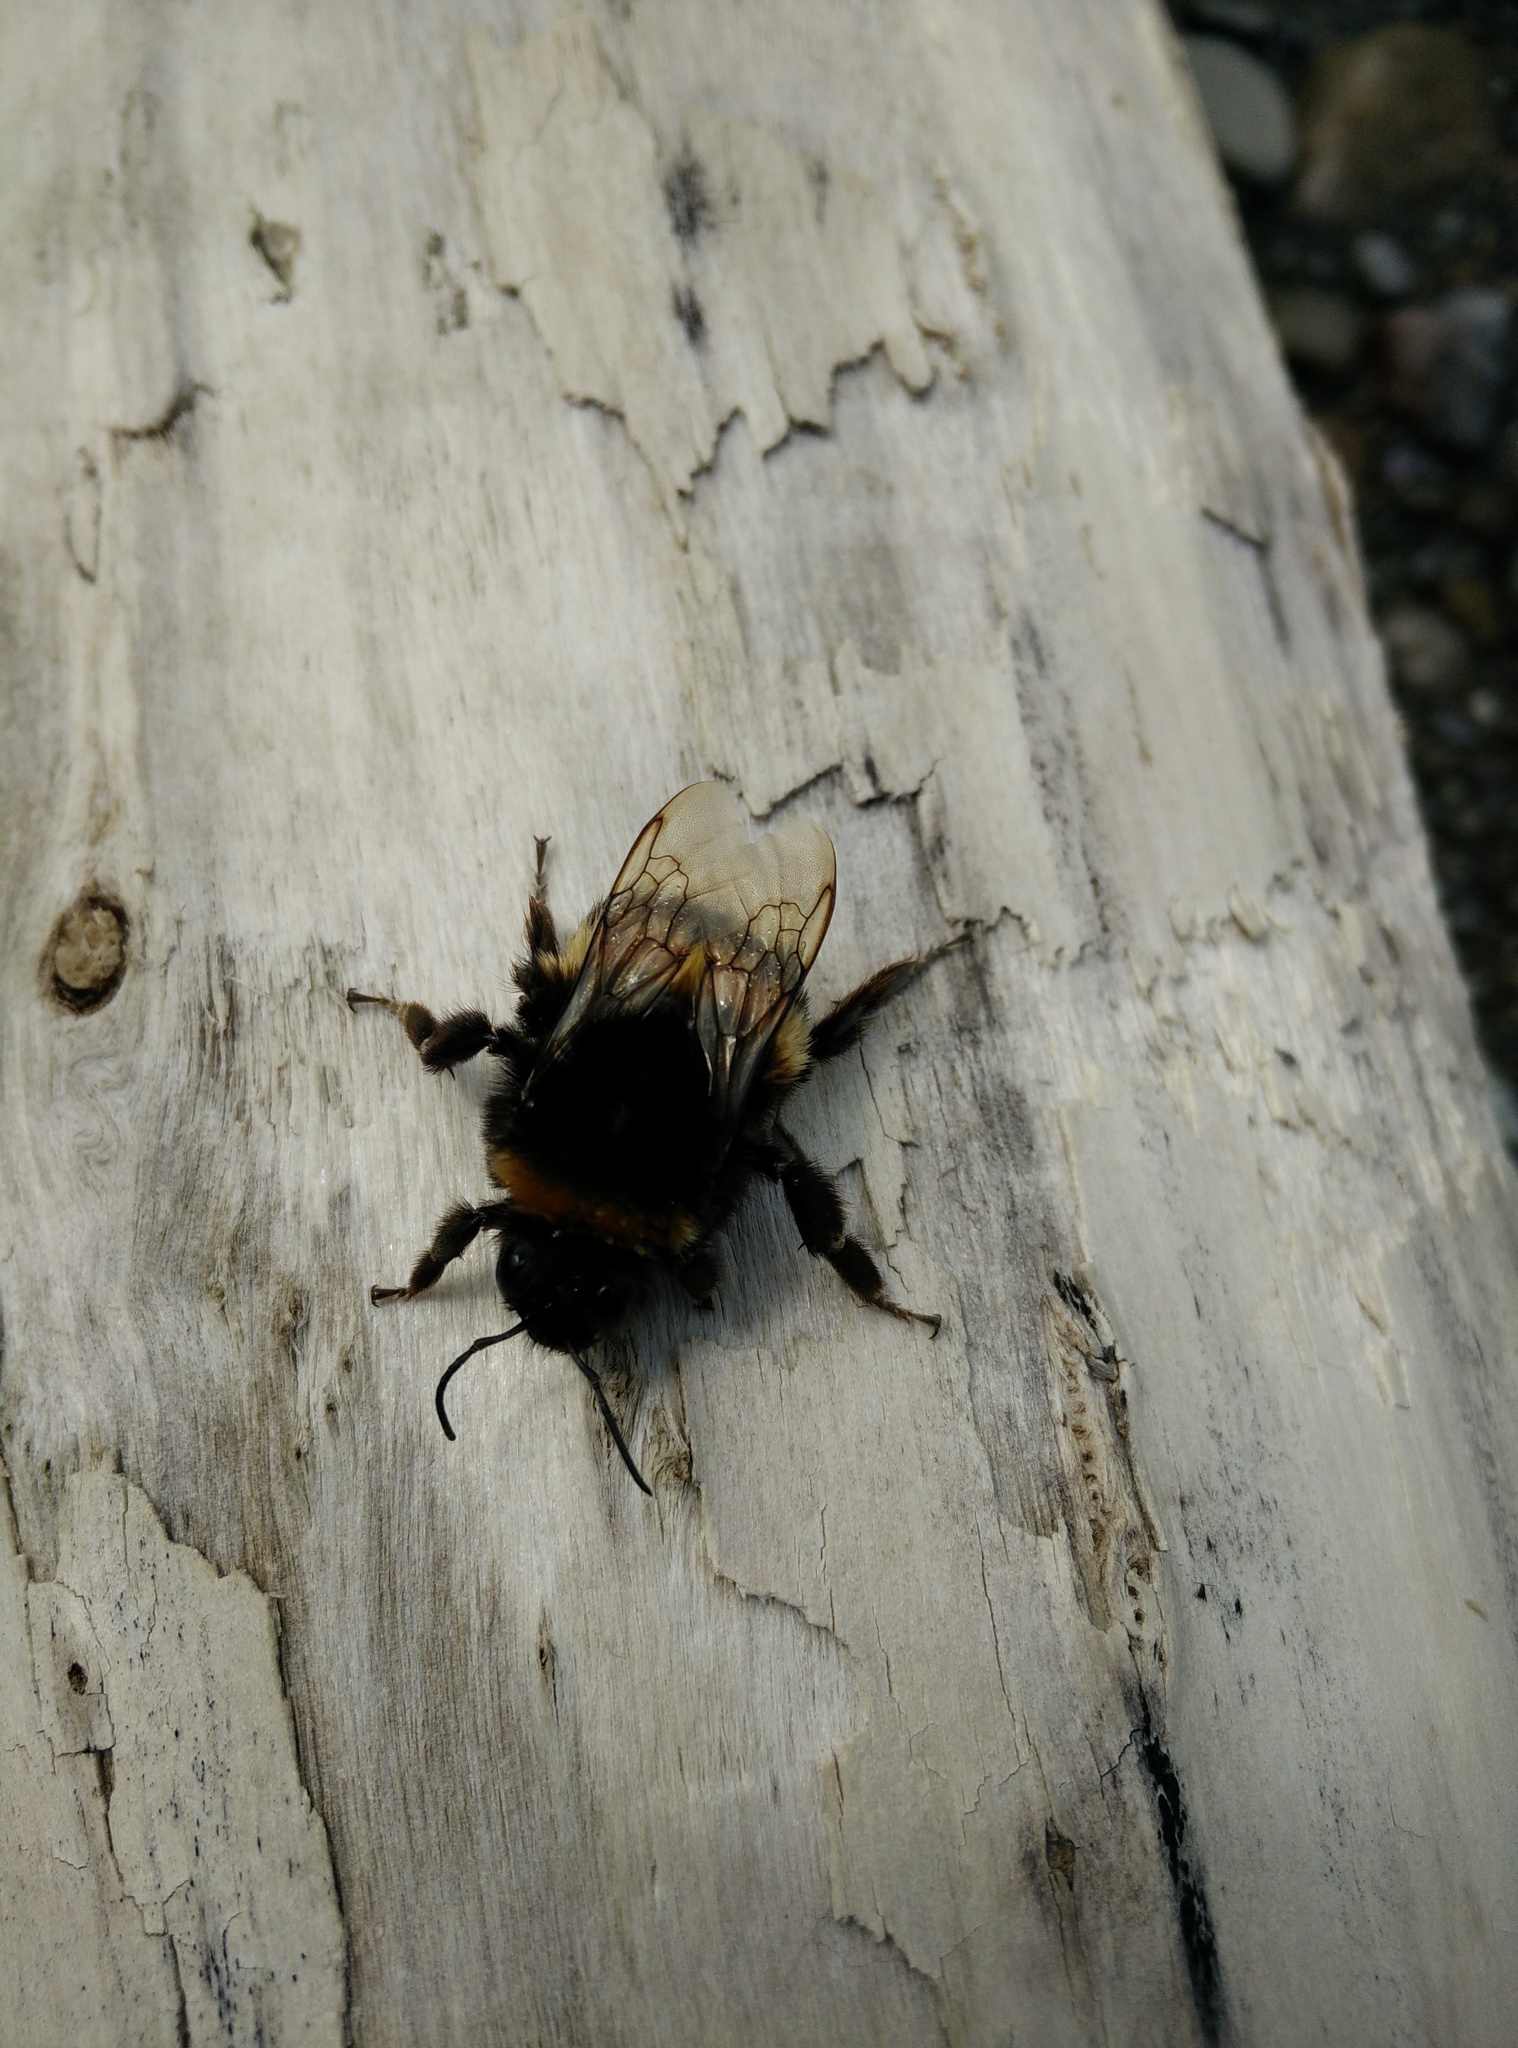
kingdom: Animalia
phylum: Arthropoda
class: Insecta
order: Hymenoptera
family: Apidae
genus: Bombus
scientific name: Bombus terrestris
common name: Buff-tailed bumblebee
